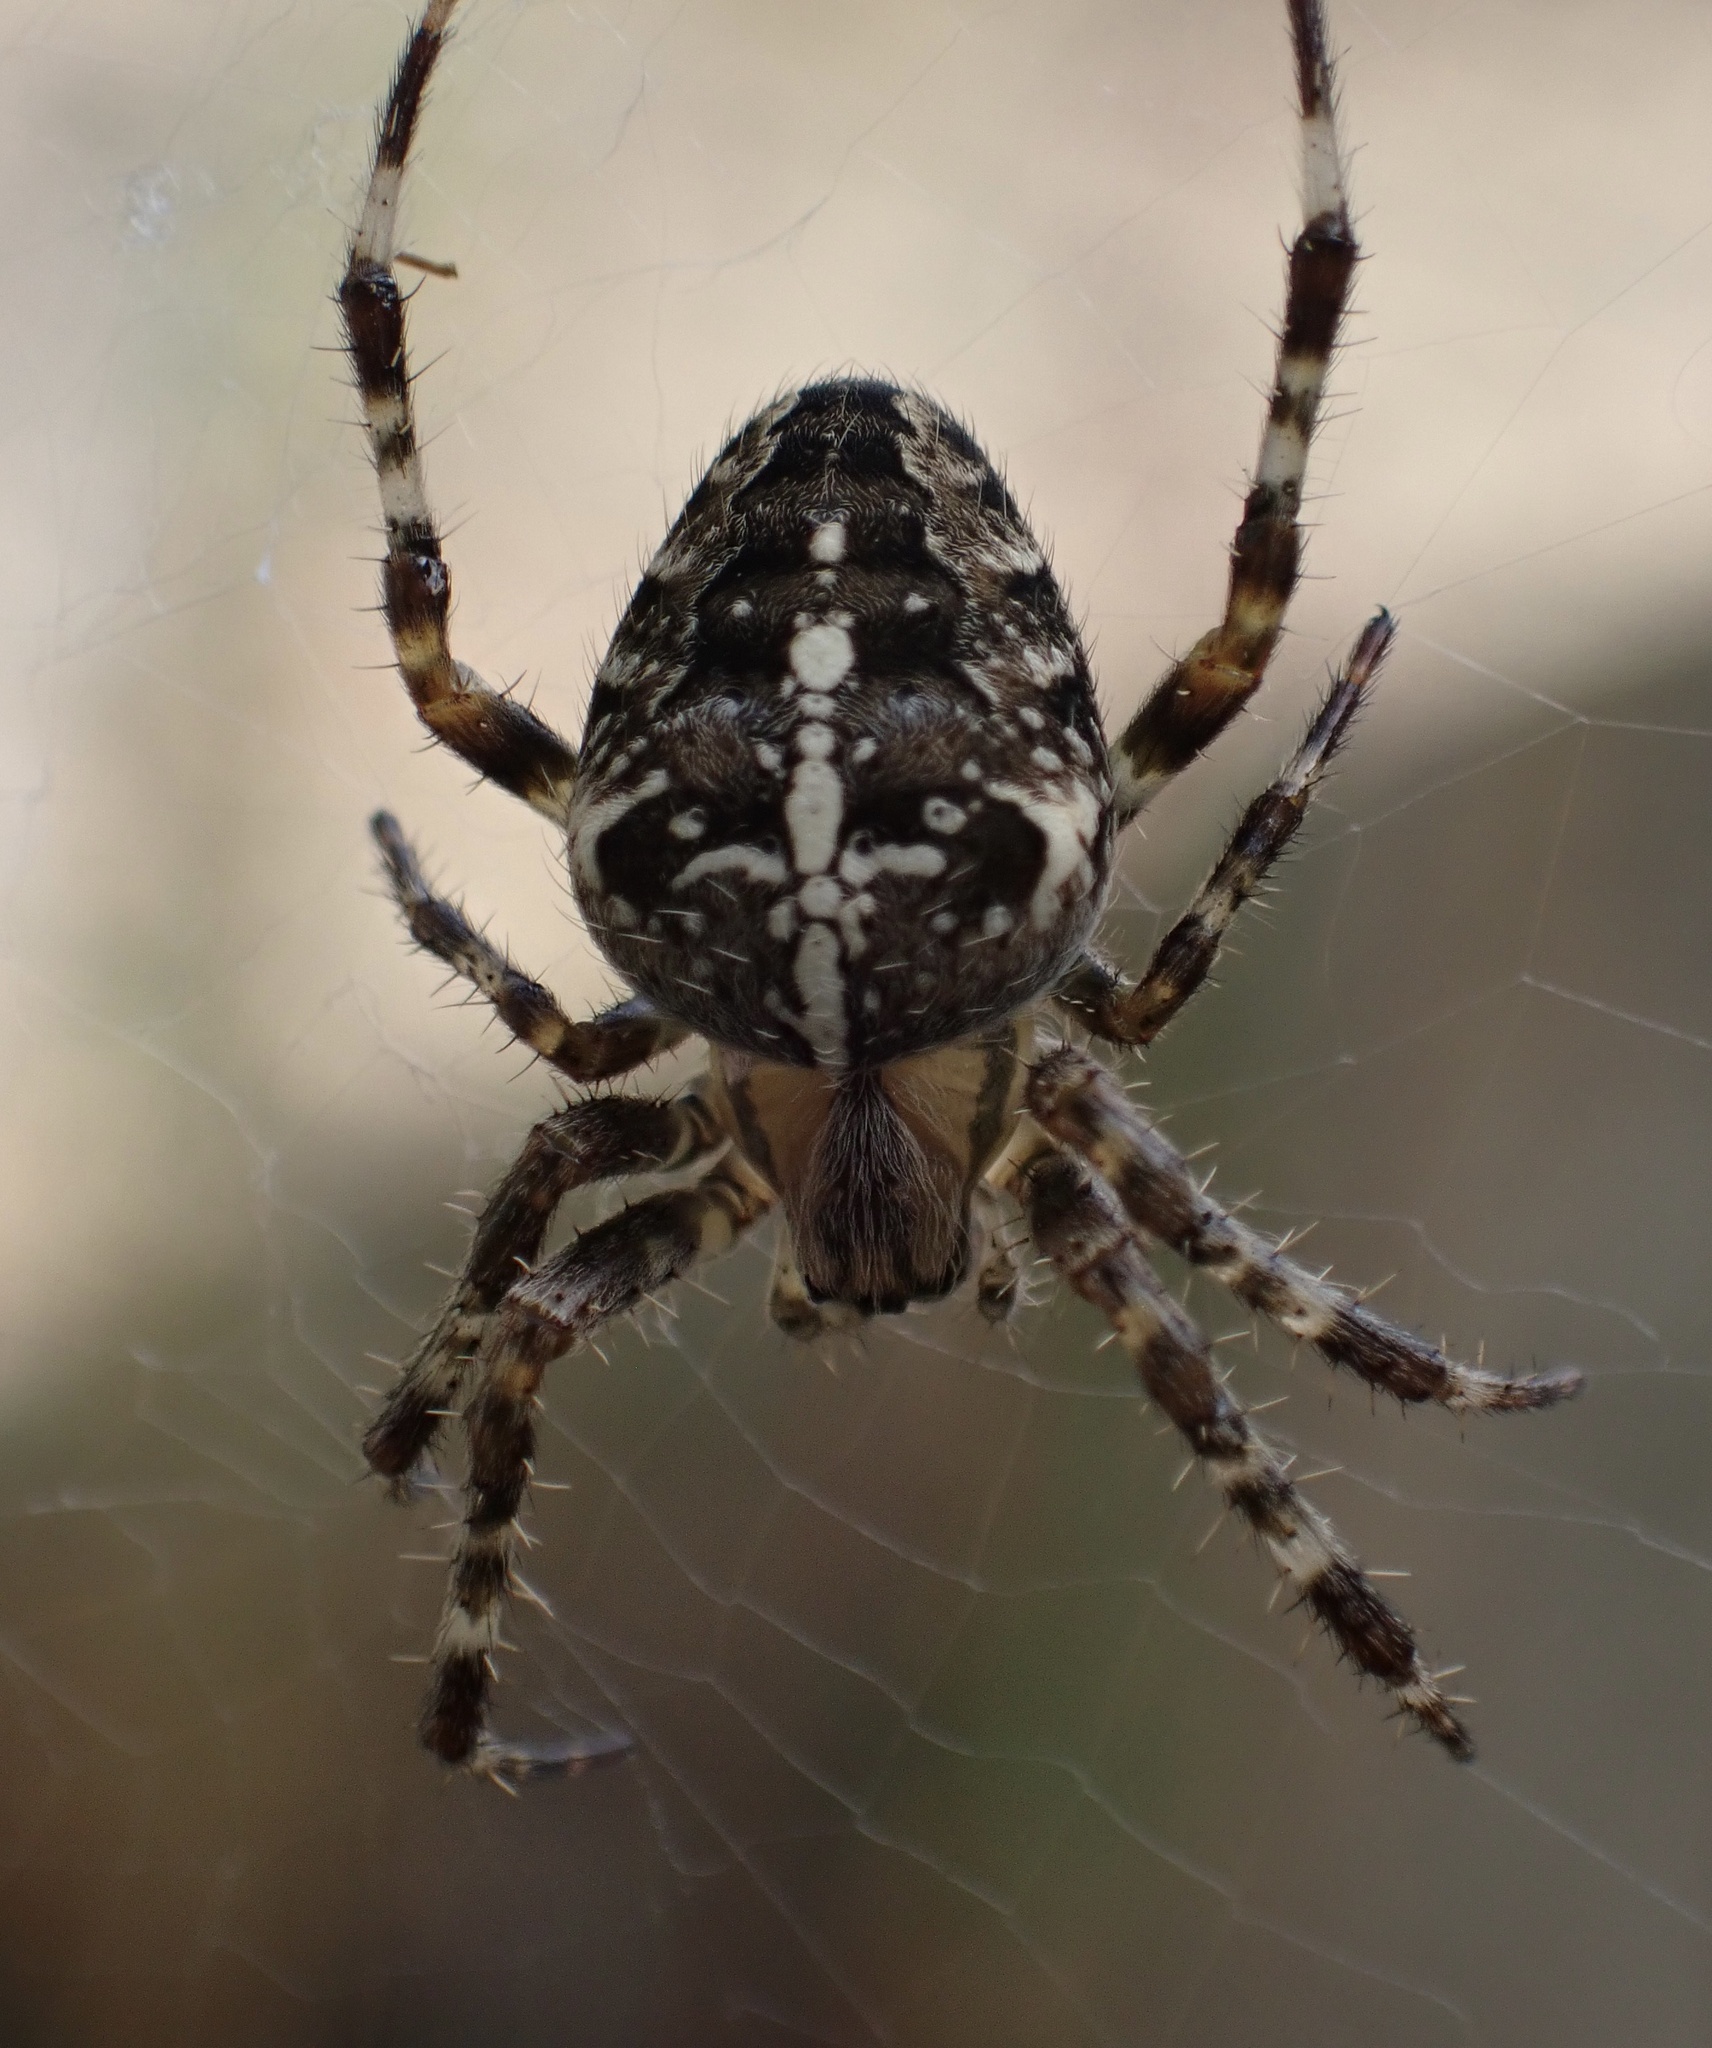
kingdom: Animalia
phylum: Arthropoda
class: Arachnida
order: Araneae
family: Araneidae
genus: Araneus
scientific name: Araneus diadematus
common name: Cross orbweaver
